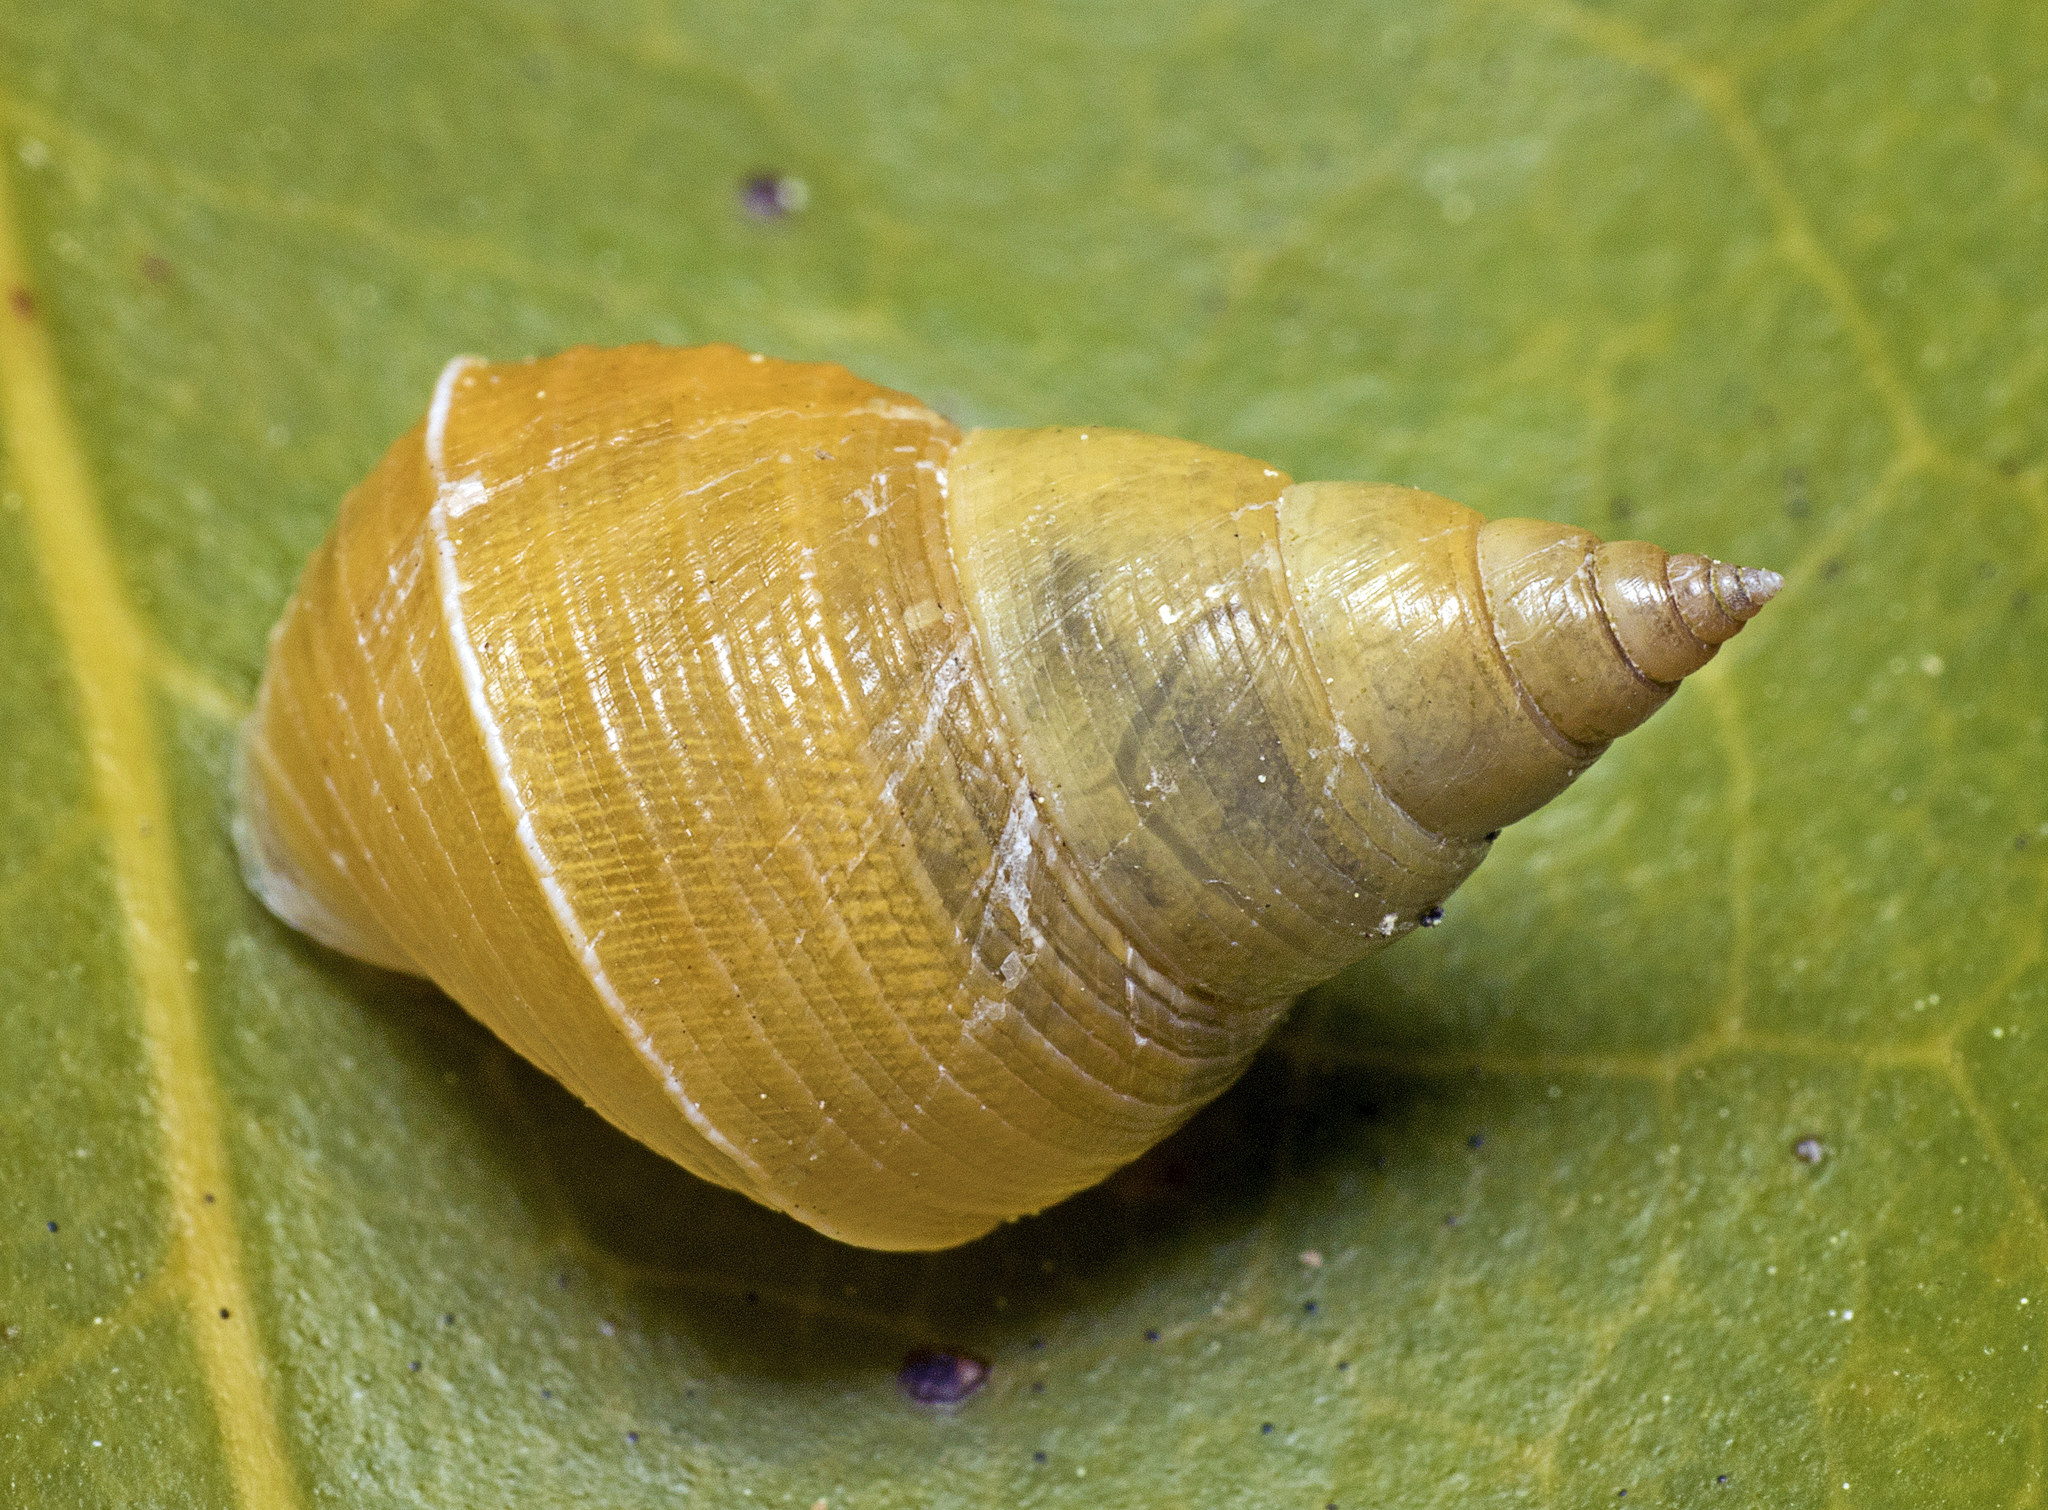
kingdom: Animalia
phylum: Mollusca
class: Gastropoda
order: Littorinimorpha
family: Littorinidae
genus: Littoraria
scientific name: Littoraria filosa
